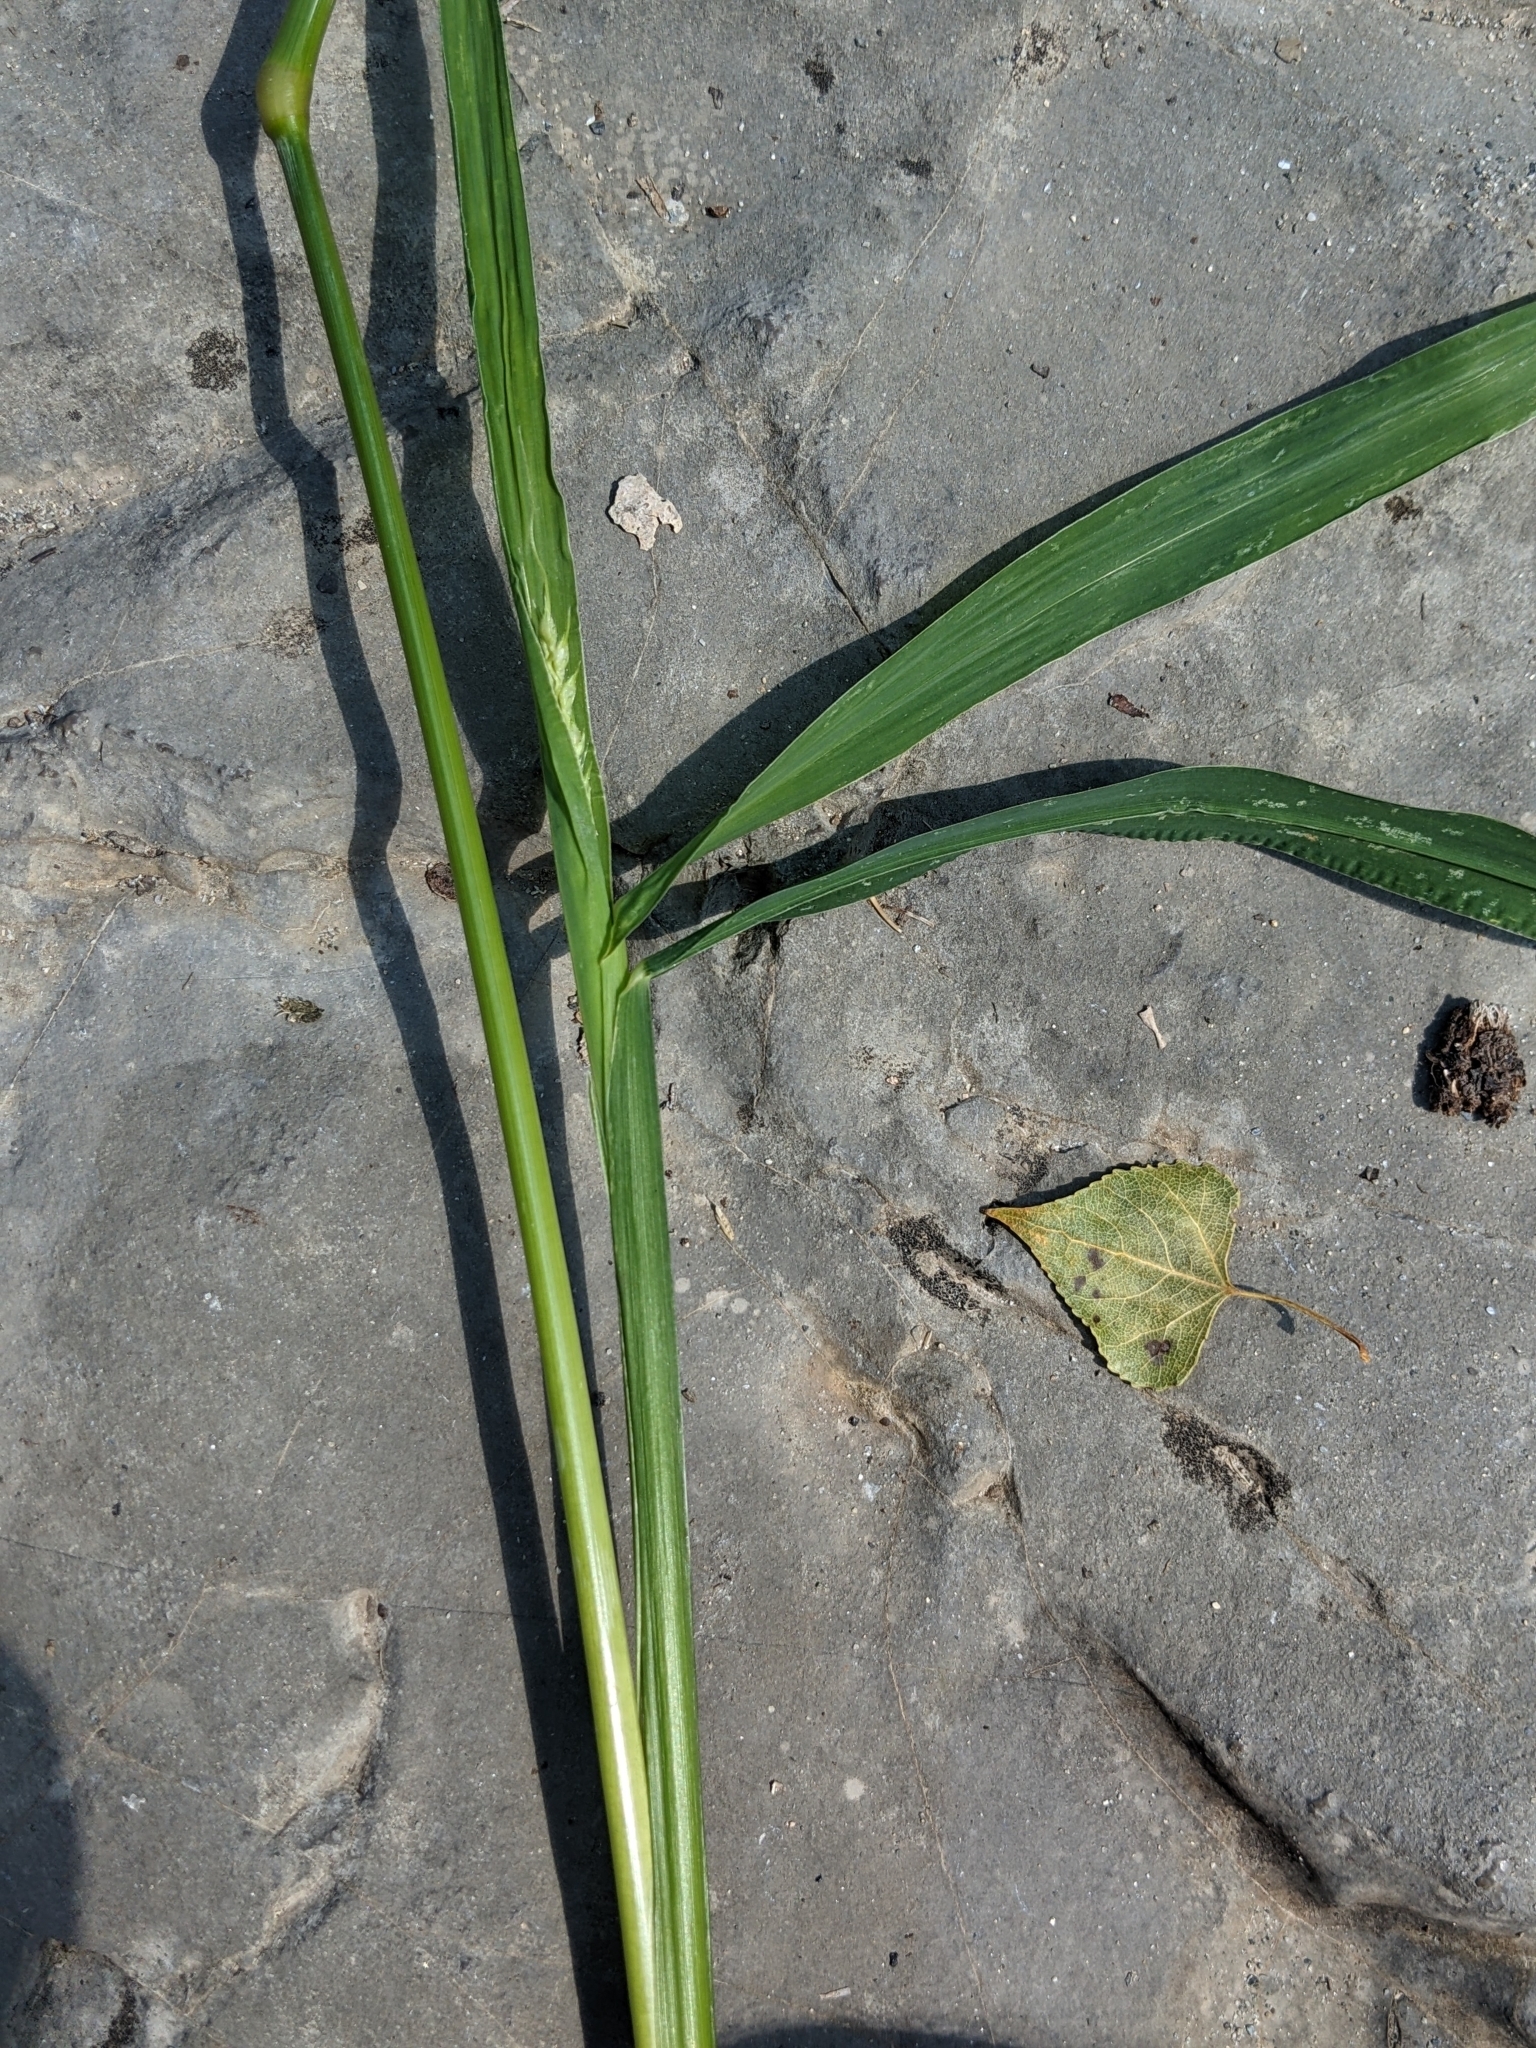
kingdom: Plantae
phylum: Tracheophyta
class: Liliopsida
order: Poales
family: Poaceae
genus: Echinochloa
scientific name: Echinochloa crus-galli
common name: Cockspur
